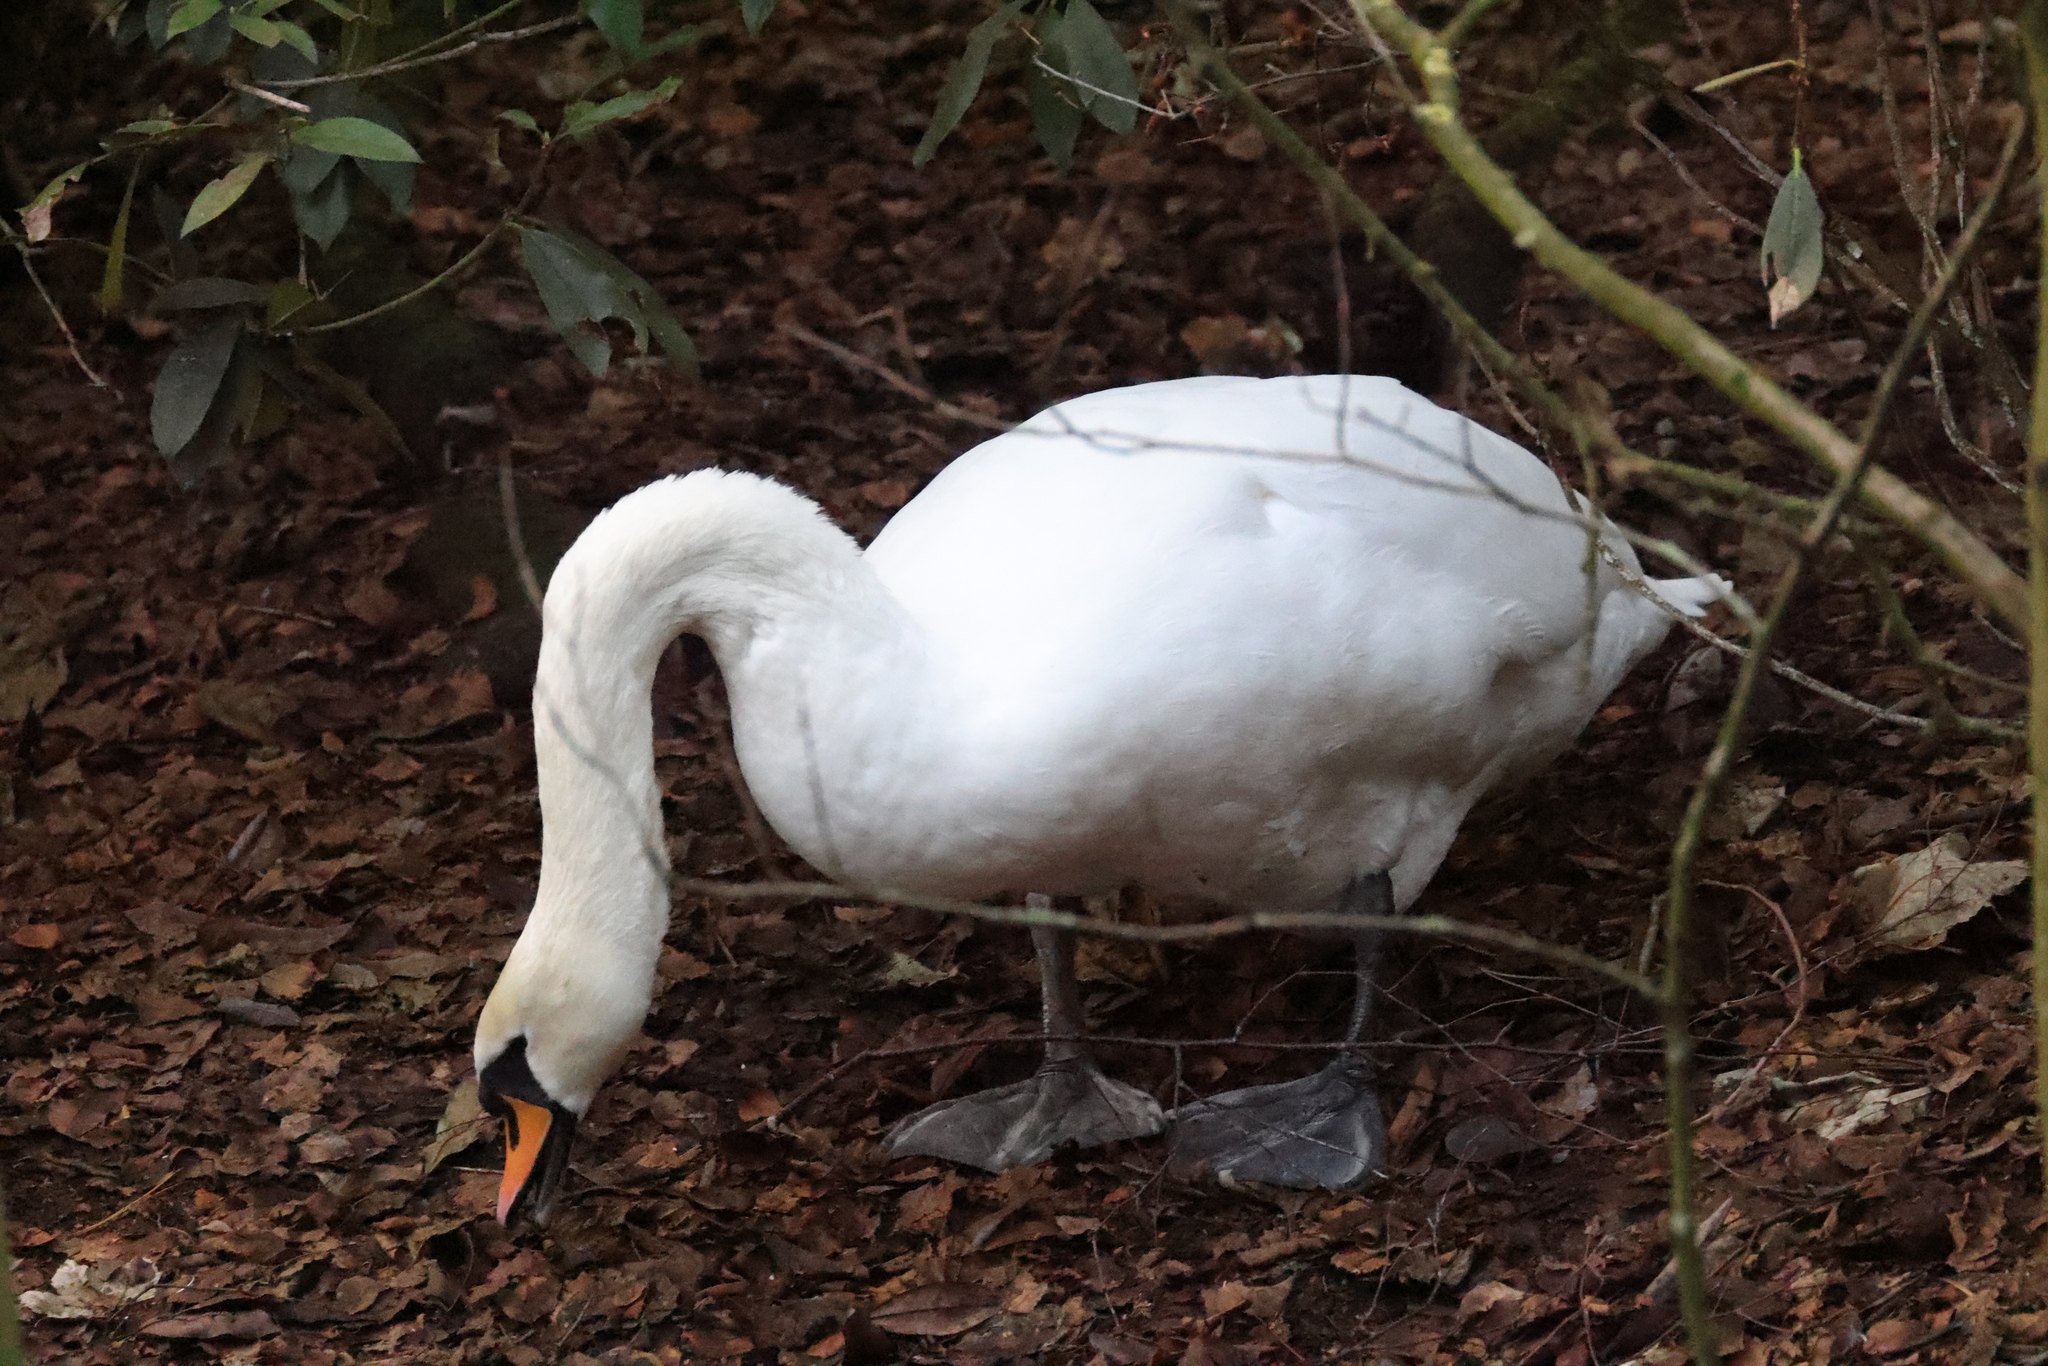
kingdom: Animalia
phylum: Chordata
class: Aves
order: Anseriformes
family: Anatidae
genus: Cygnus
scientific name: Cygnus olor
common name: Mute swan
